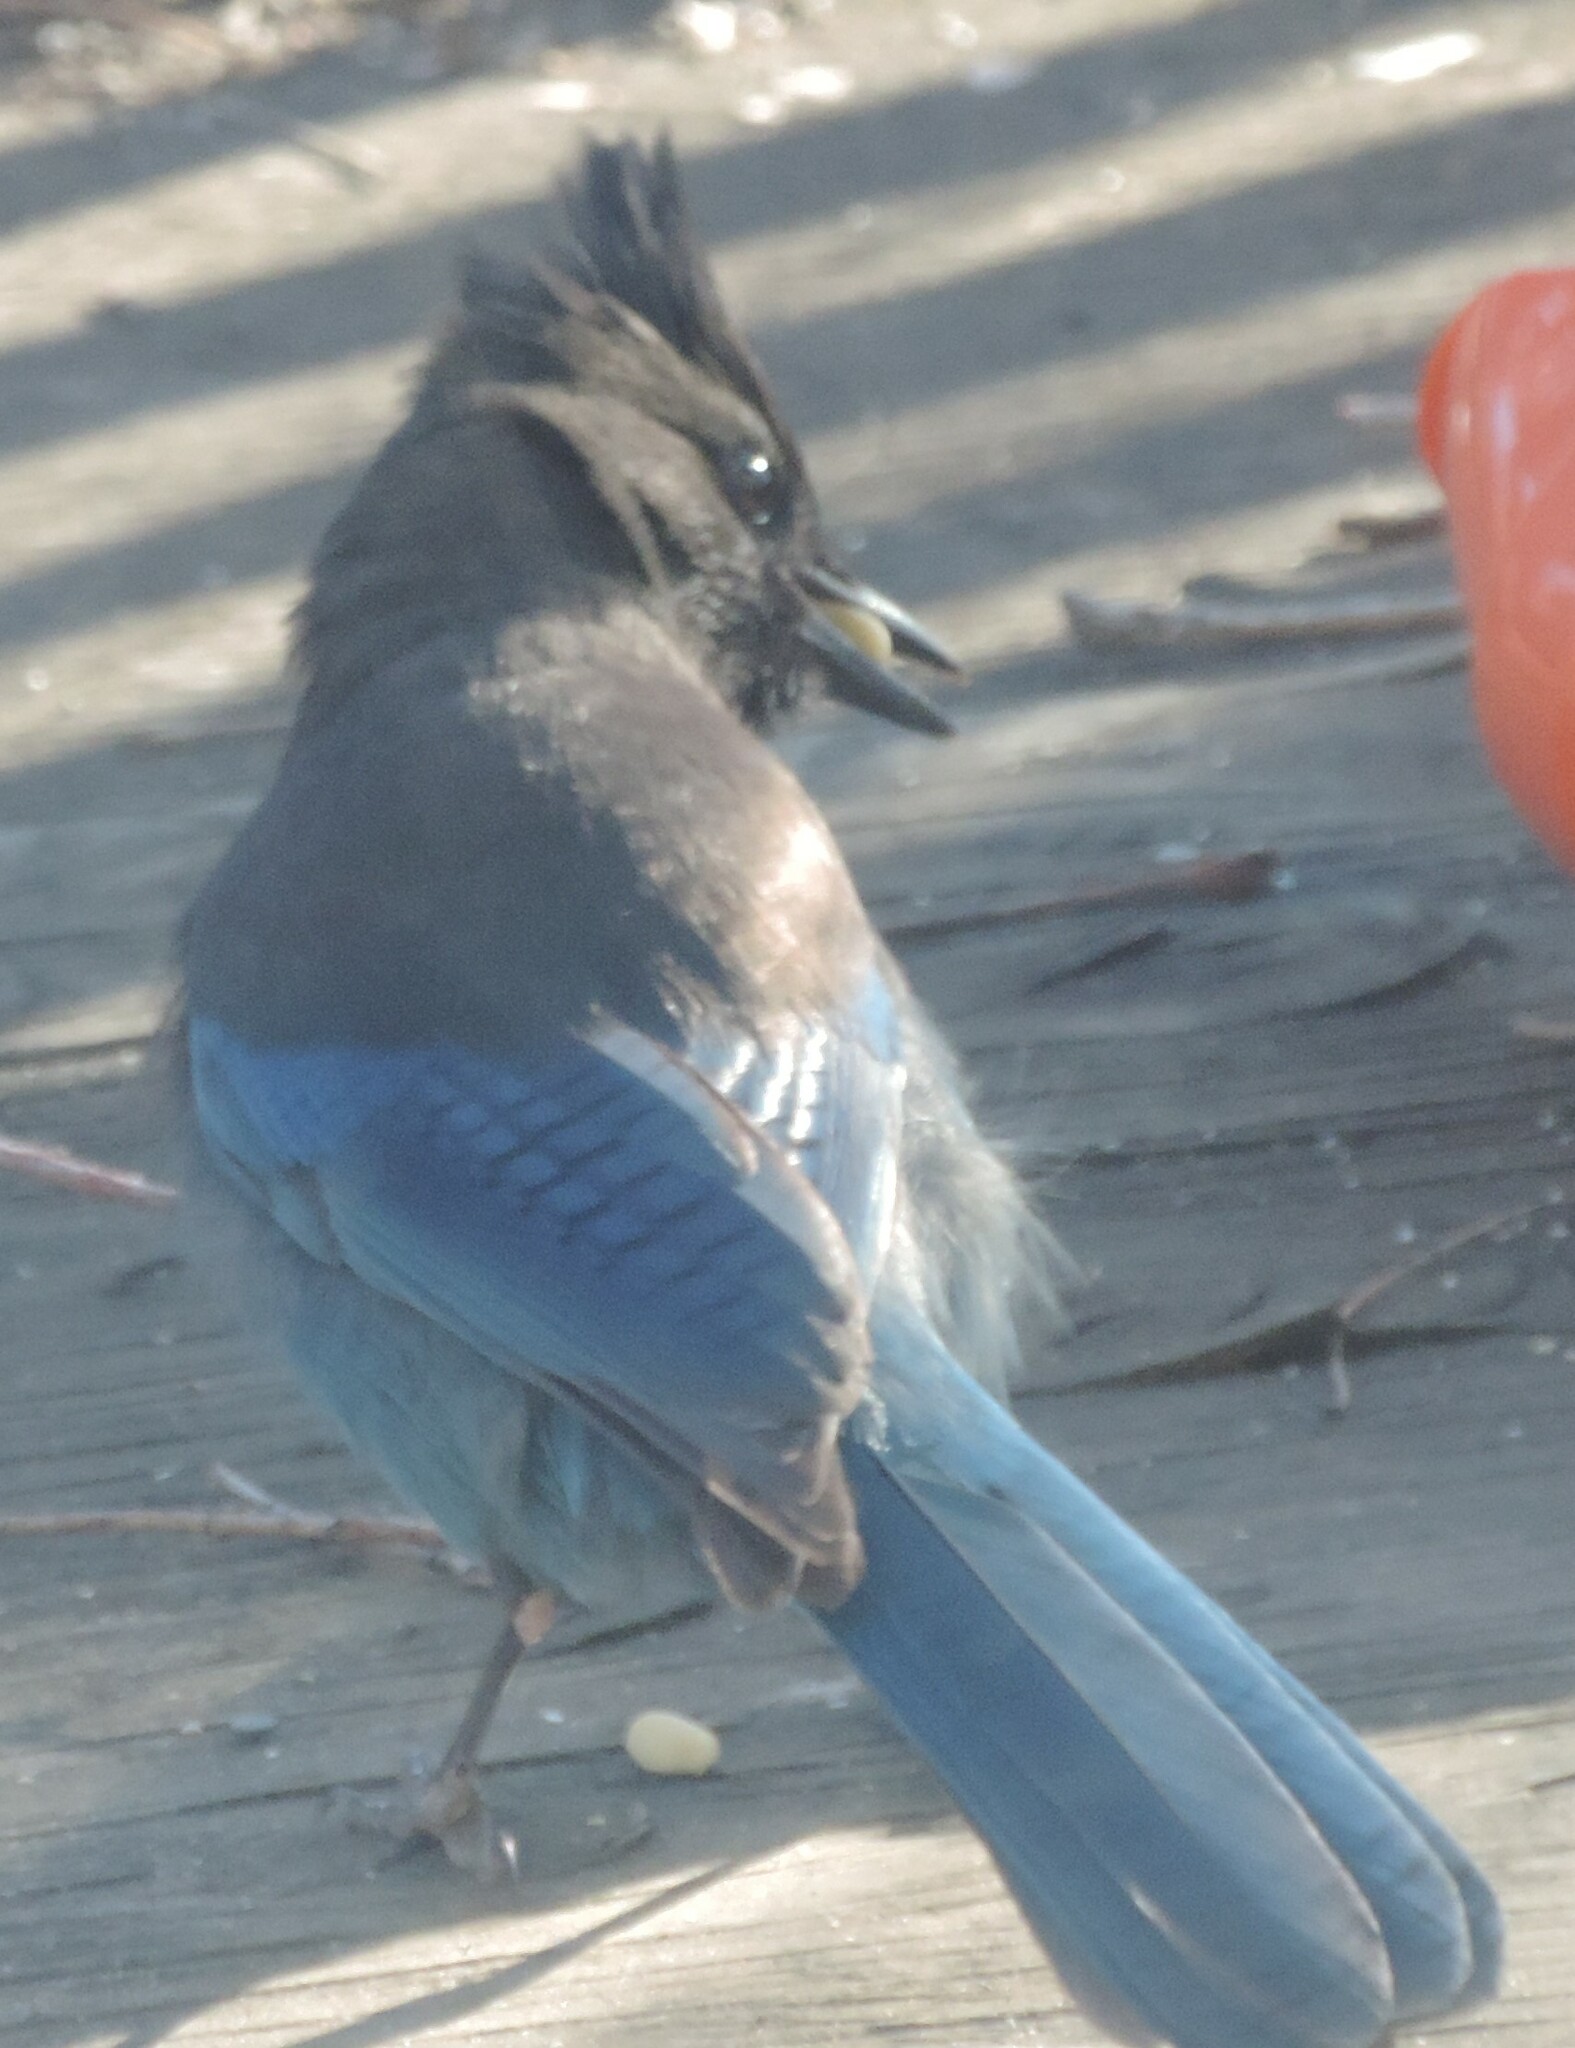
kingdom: Animalia
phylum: Chordata
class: Aves
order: Passeriformes
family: Corvidae
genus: Cyanocitta
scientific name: Cyanocitta stelleri
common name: Steller's jay
